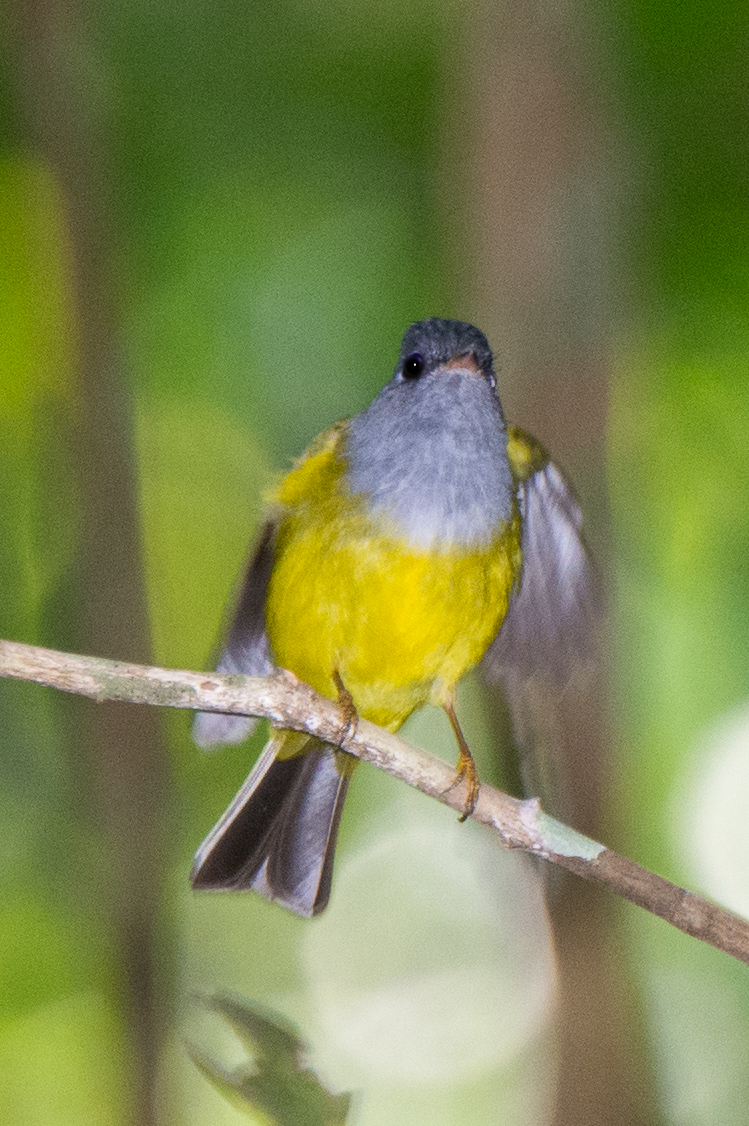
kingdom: Animalia
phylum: Chordata
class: Aves
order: Passeriformes
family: Stenostiridae
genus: Culicicapa
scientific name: Culicicapa ceylonensis
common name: Grey-headed canary-flycatcher
